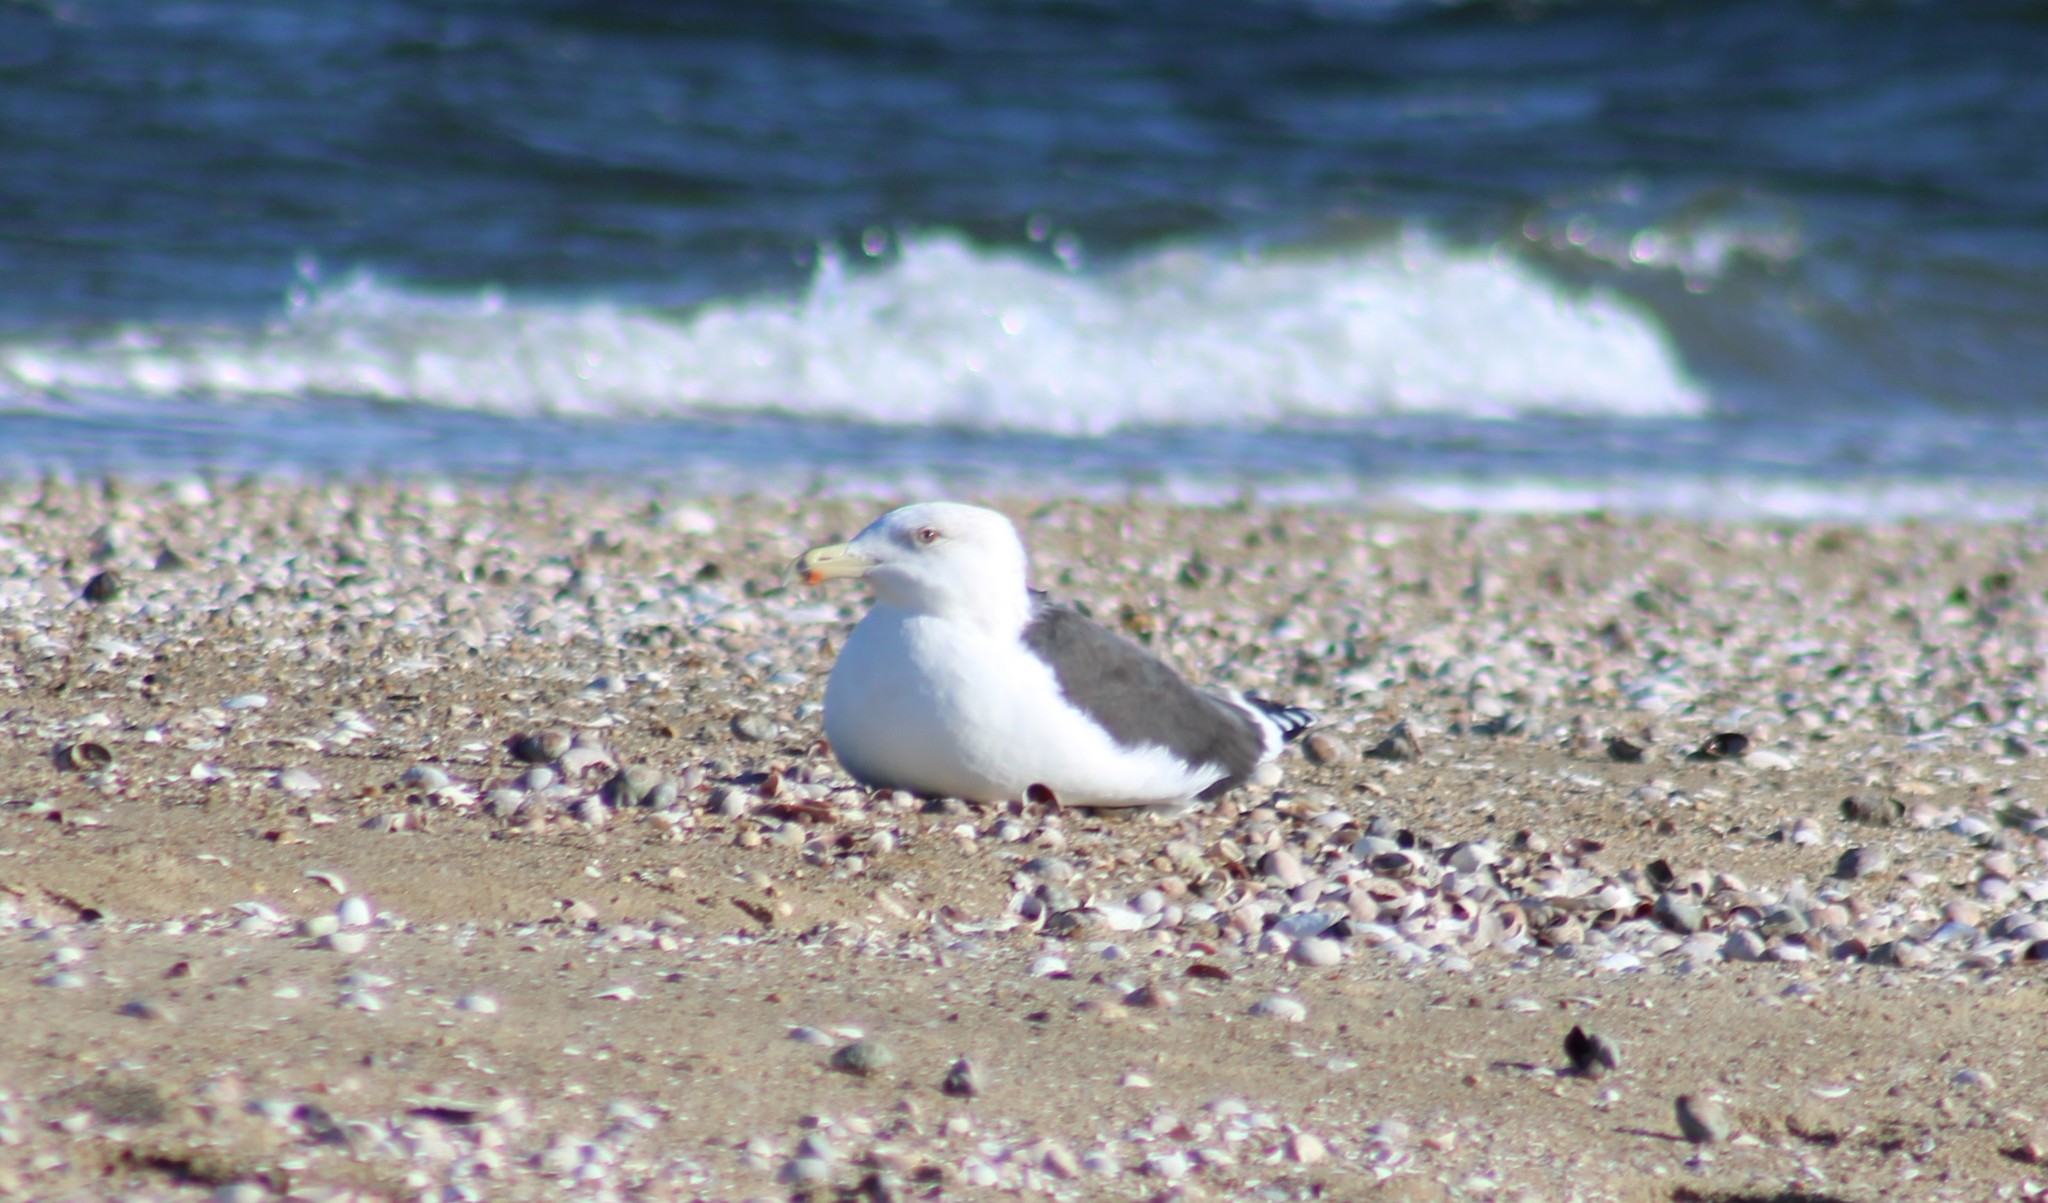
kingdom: Animalia
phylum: Chordata
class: Aves
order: Charadriiformes
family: Laridae
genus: Larus
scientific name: Larus marinus
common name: Great black-backed gull
